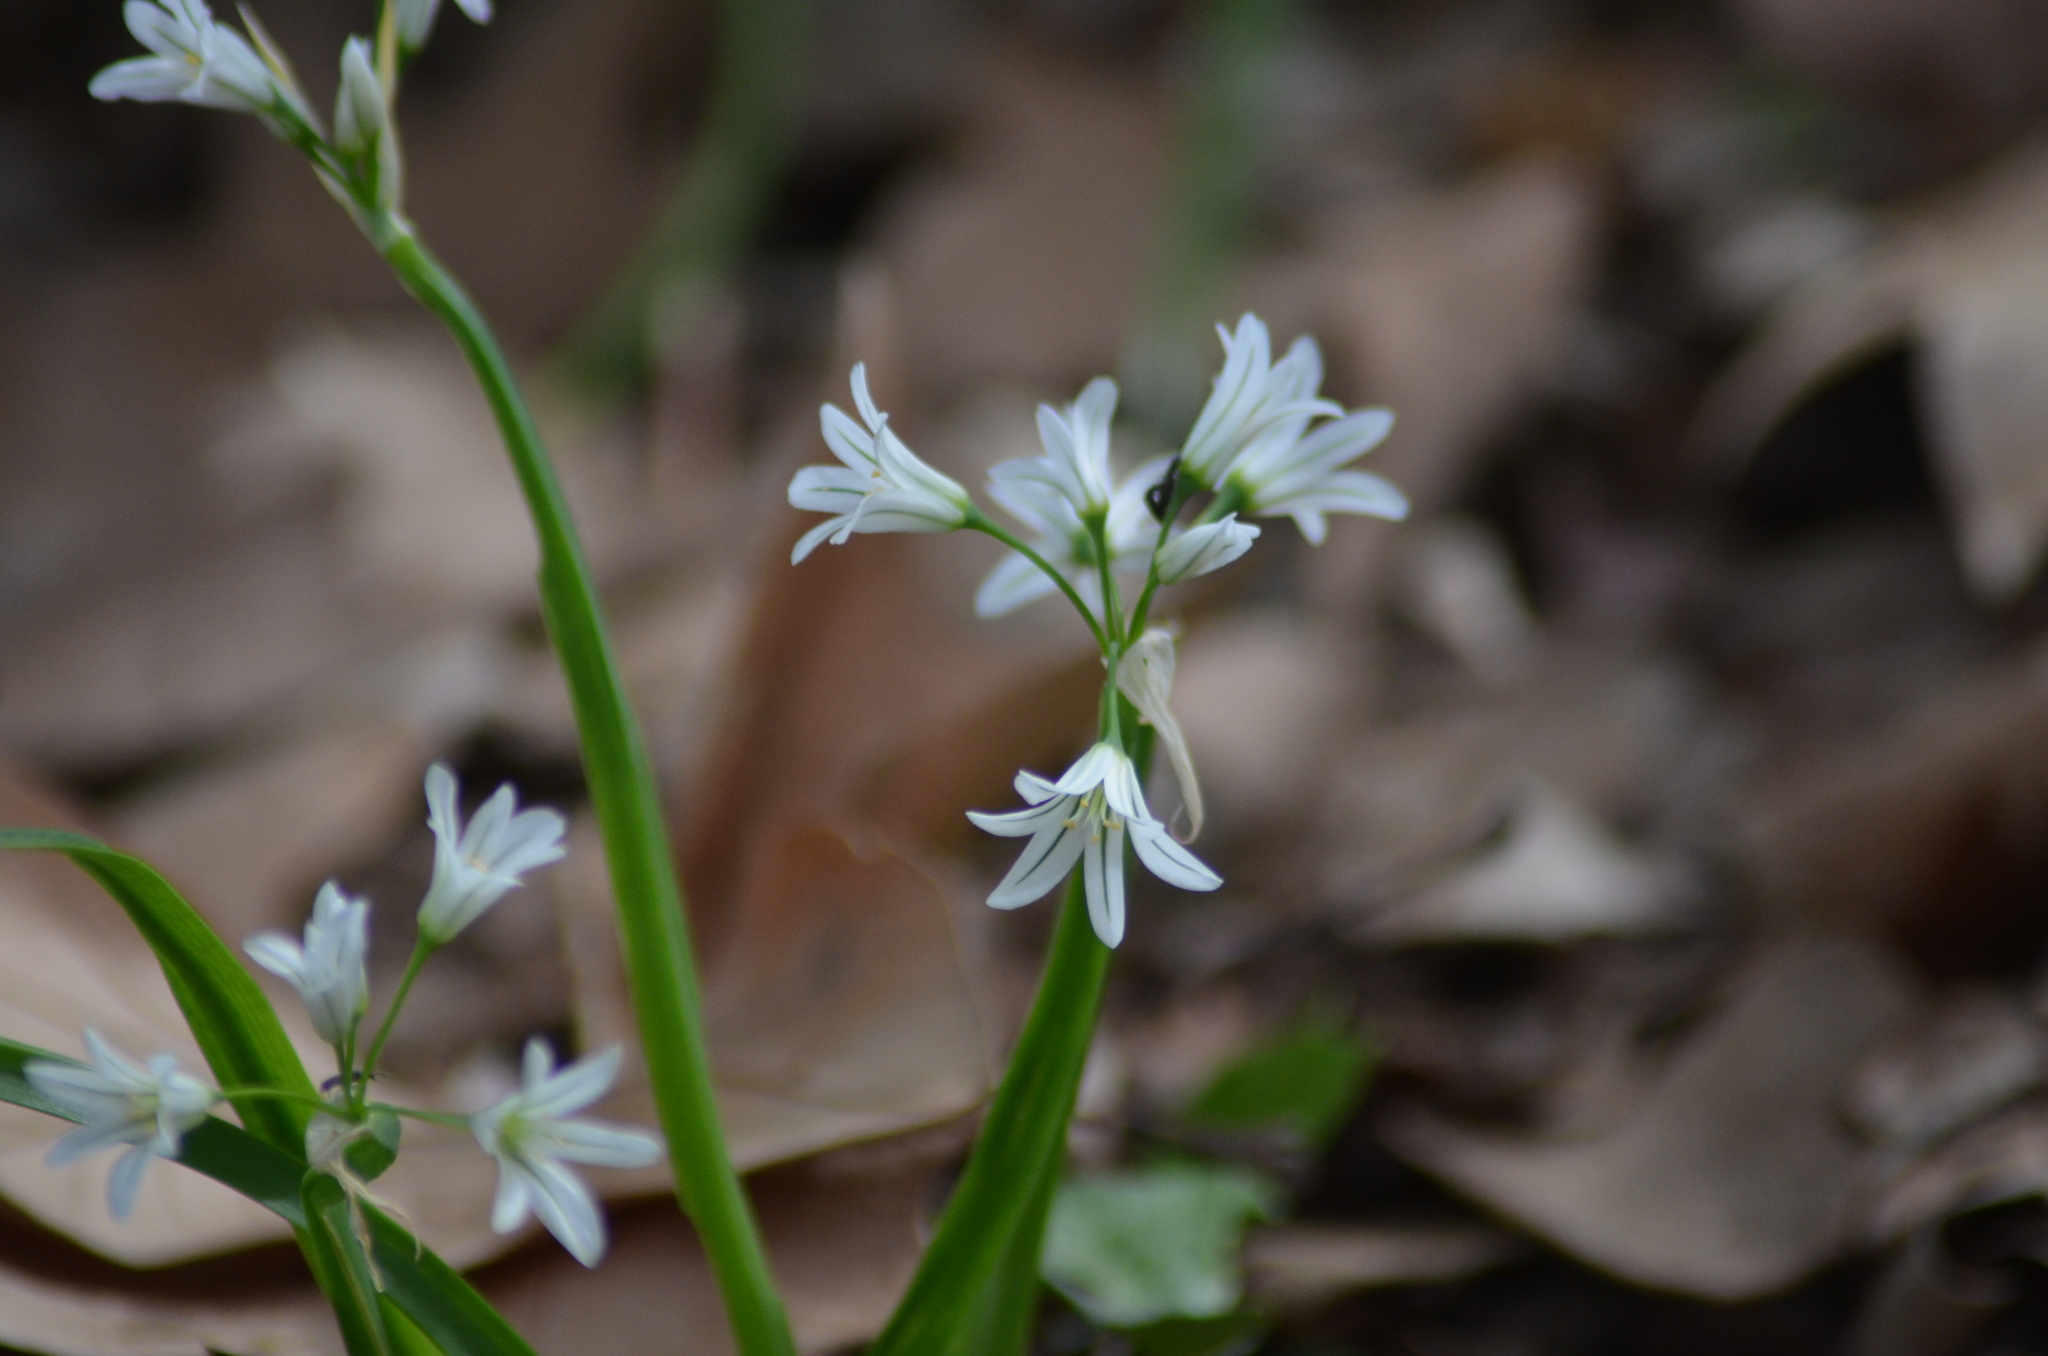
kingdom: Plantae
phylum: Tracheophyta
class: Liliopsida
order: Asparagales
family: Amaryllidaceae
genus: Allium
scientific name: Allium triquetrum
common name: Three-cornered garlic
